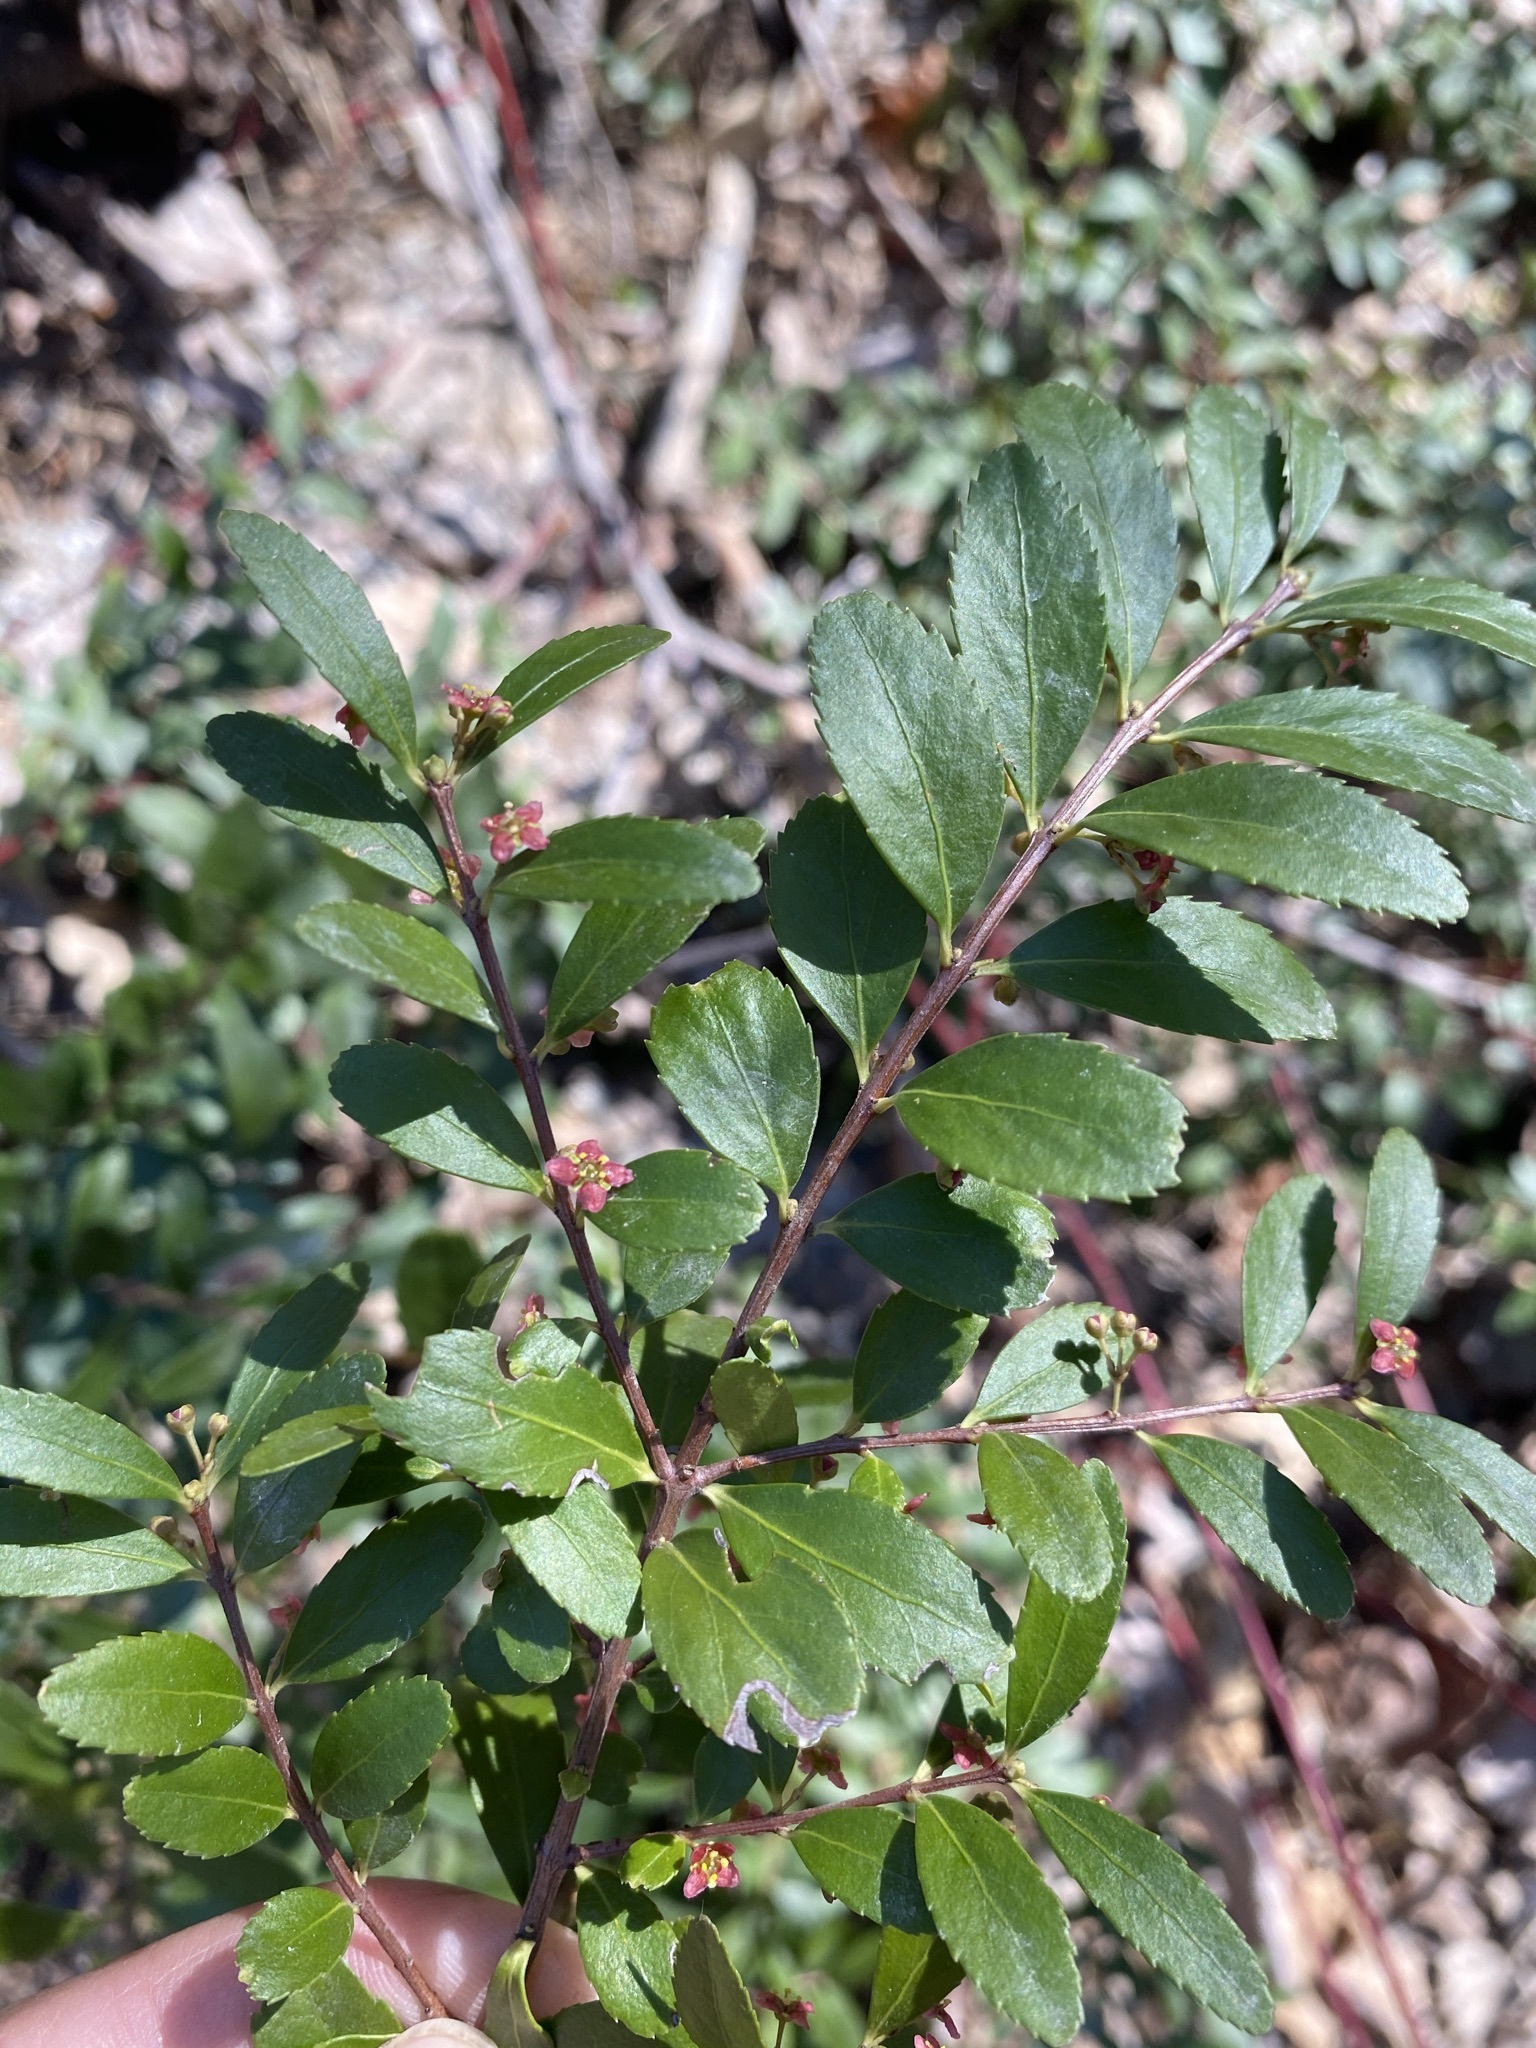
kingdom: Plantae
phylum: Tracheophyta
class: Magnoliopsida
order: Celastrales
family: Celastraceae
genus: Paxistima
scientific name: Paxistima myrsinites
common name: Mountain-lover
